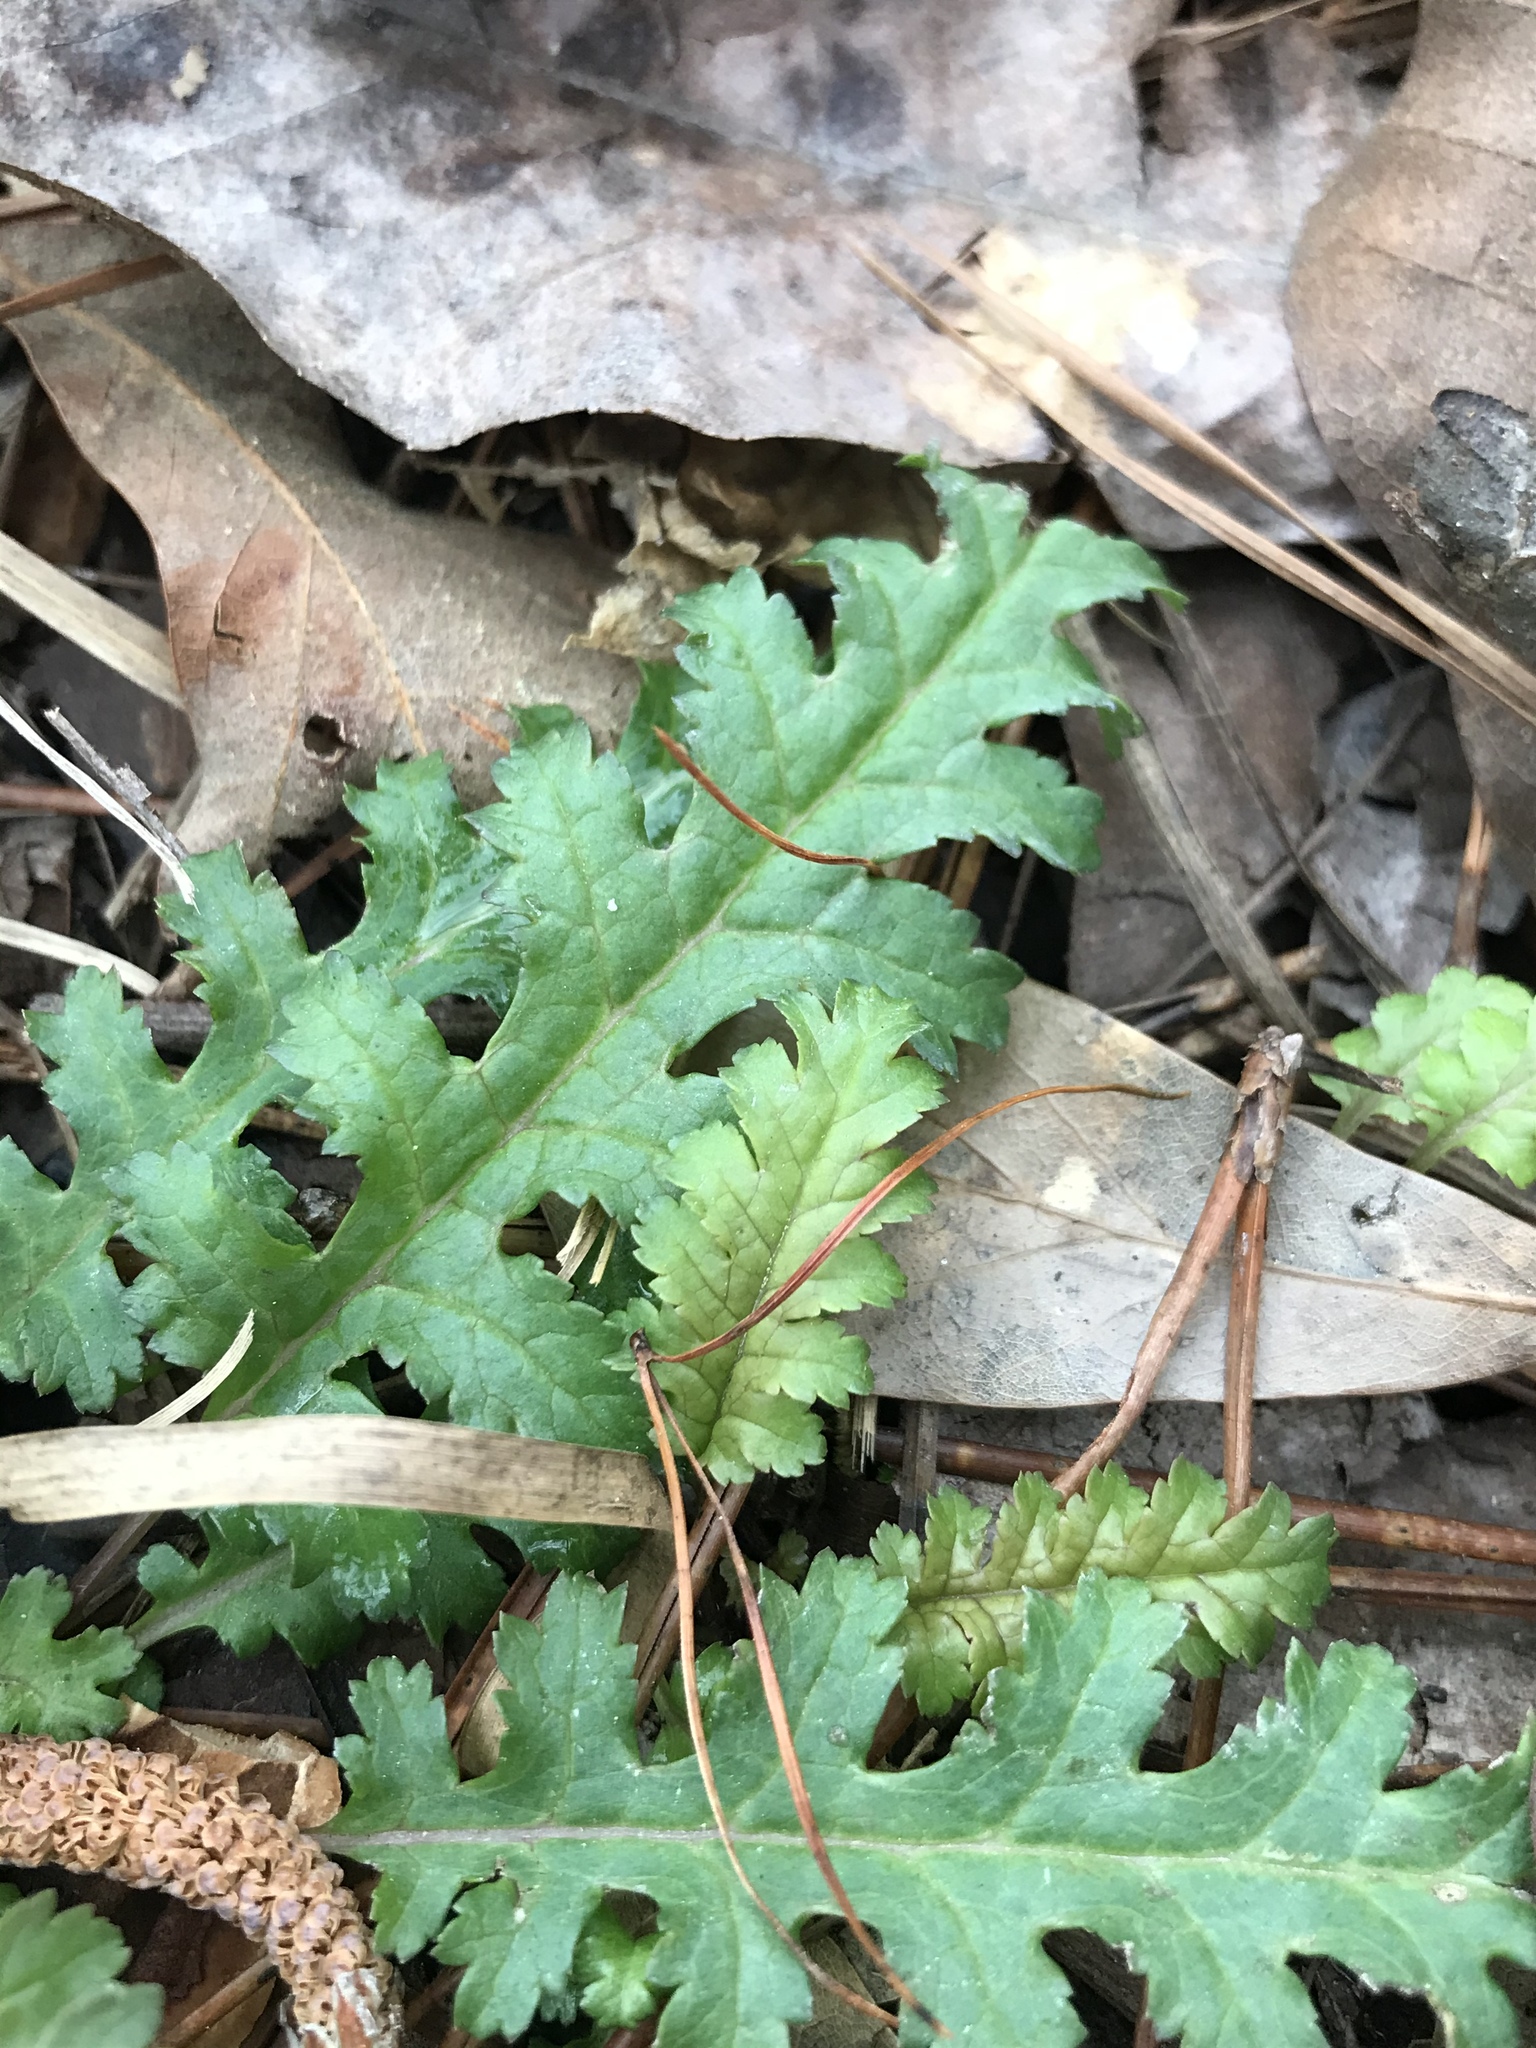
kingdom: Plantae
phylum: Tracheophyta
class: Magnoliopsida
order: Lamiales
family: Orobanchaceae
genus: Pedicularis
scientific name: Pedicularis canadensis
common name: Early lousewort
